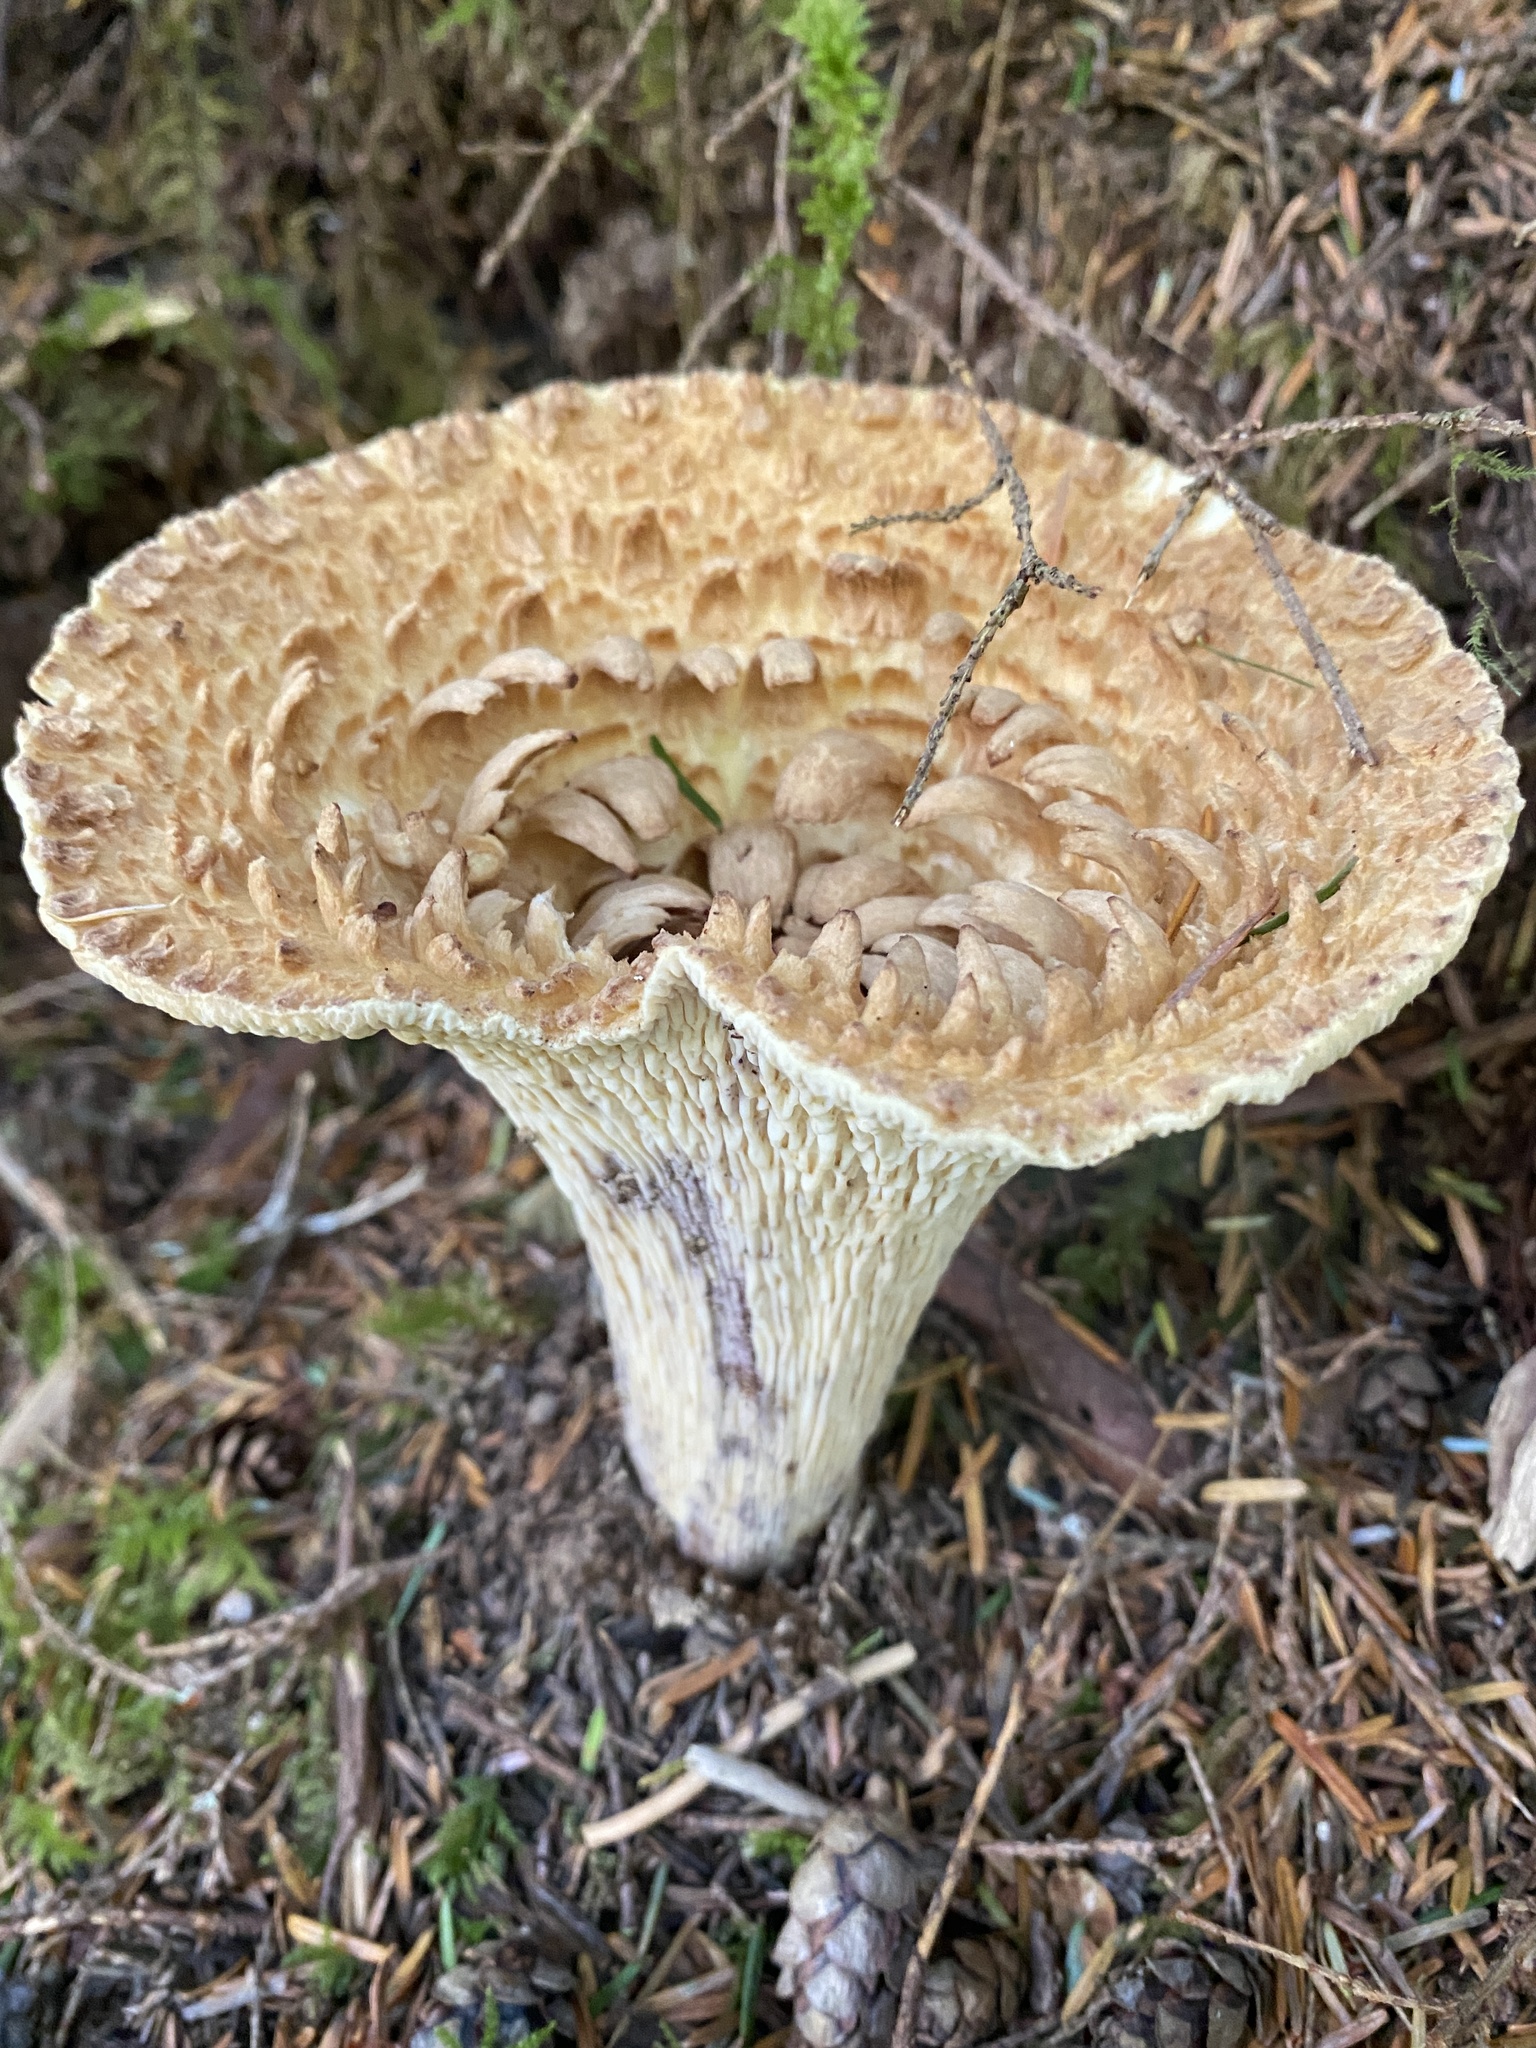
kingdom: Fungi
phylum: Basidiomycota
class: Agaricomycetes
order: Gomphales
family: Gomphaceae
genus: Turbinellus
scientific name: Turbinellus kauffmanii
